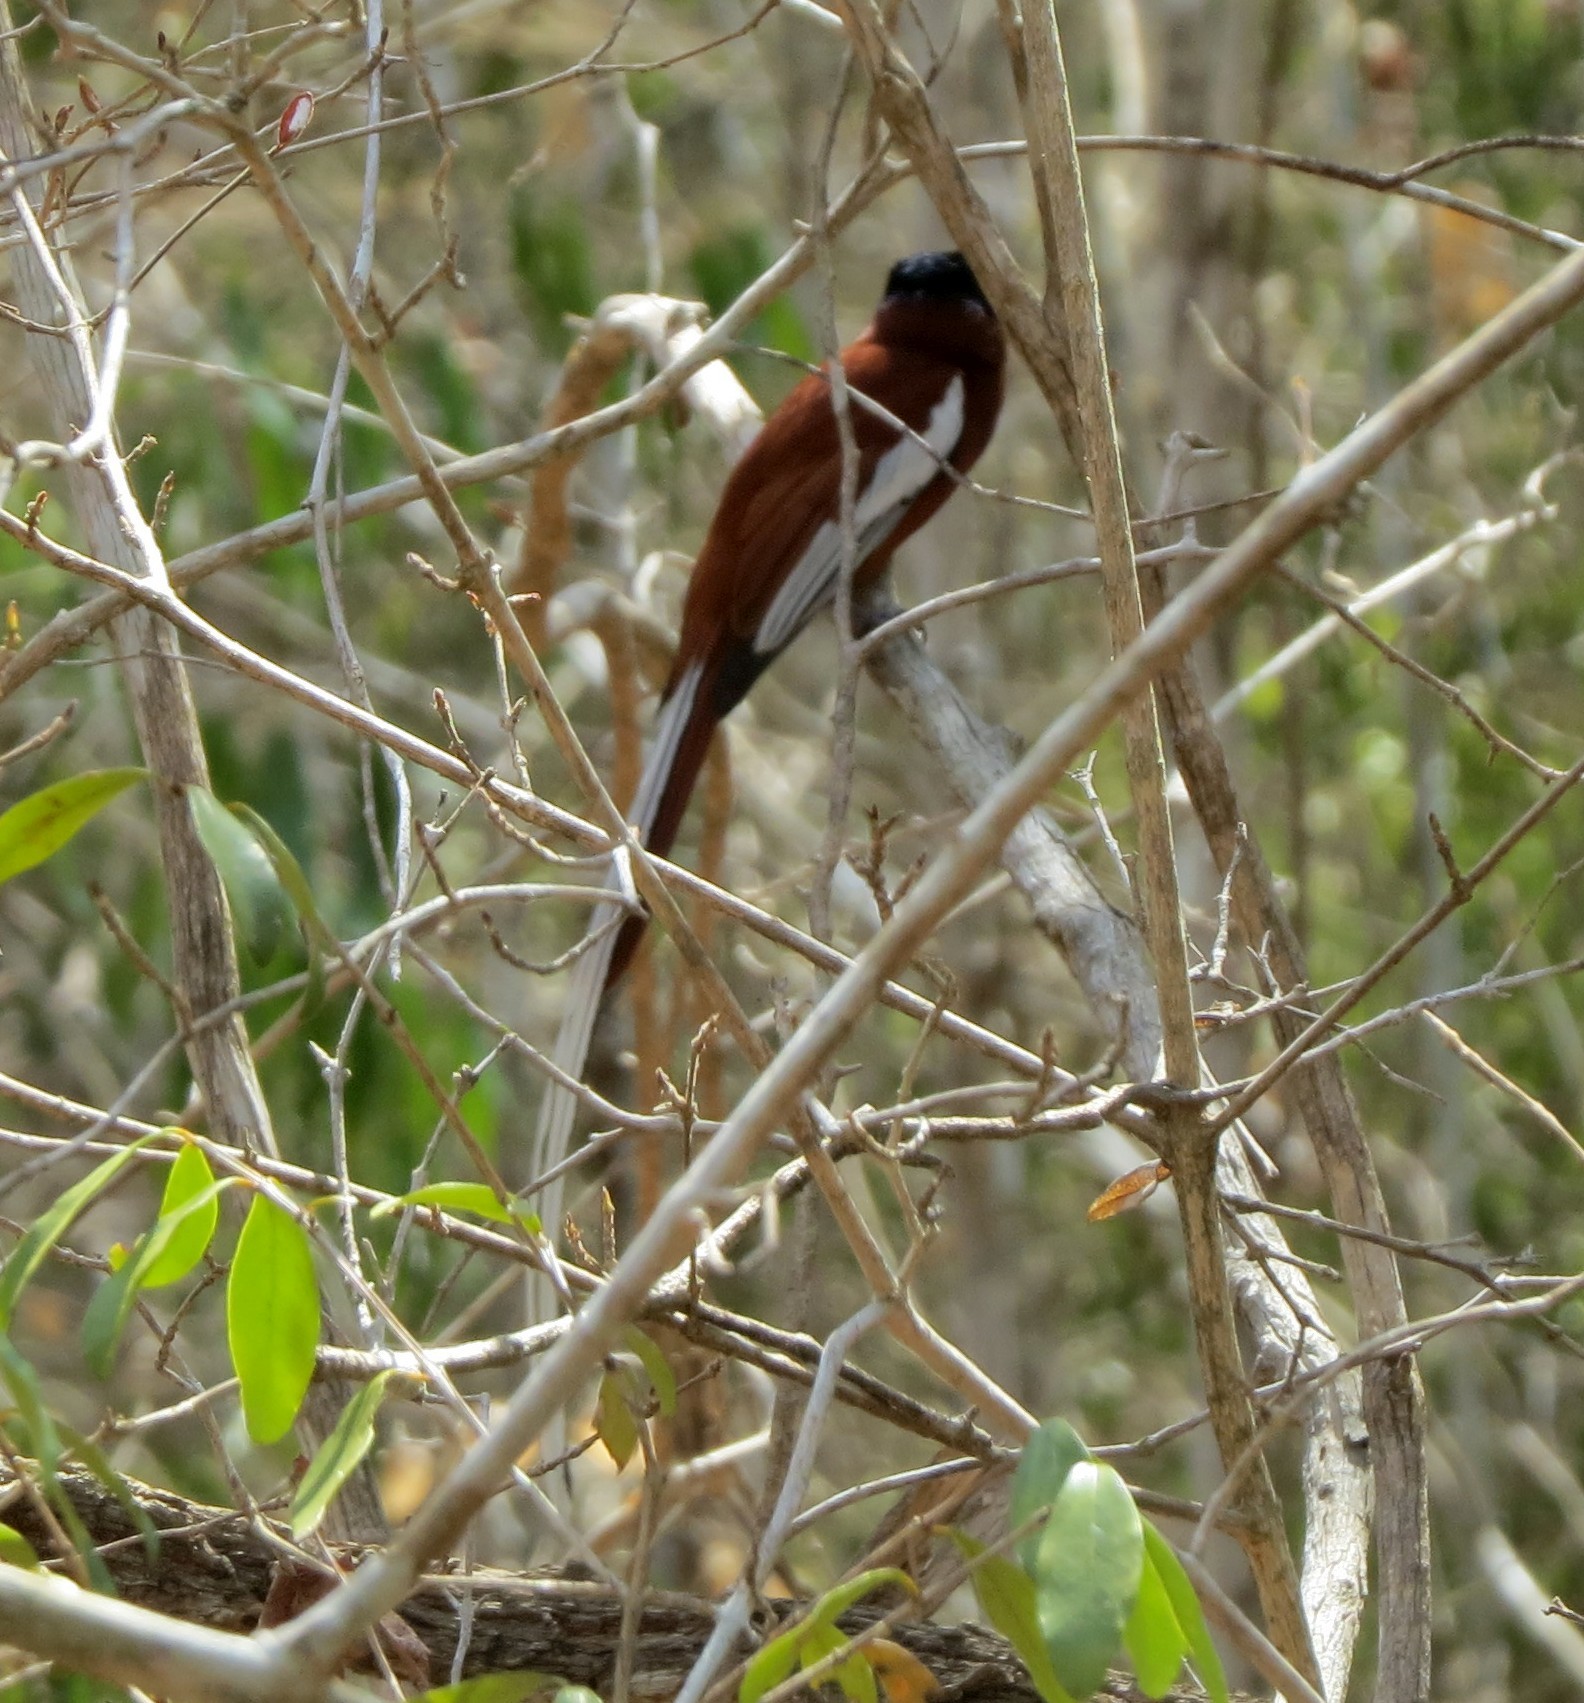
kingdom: Animalia
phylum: Chordata
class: Aves
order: Passeriformes
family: Monarchidae
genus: Terpsiphone
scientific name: Terpsiphone mutata
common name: Malagasy paradise flycatcher
